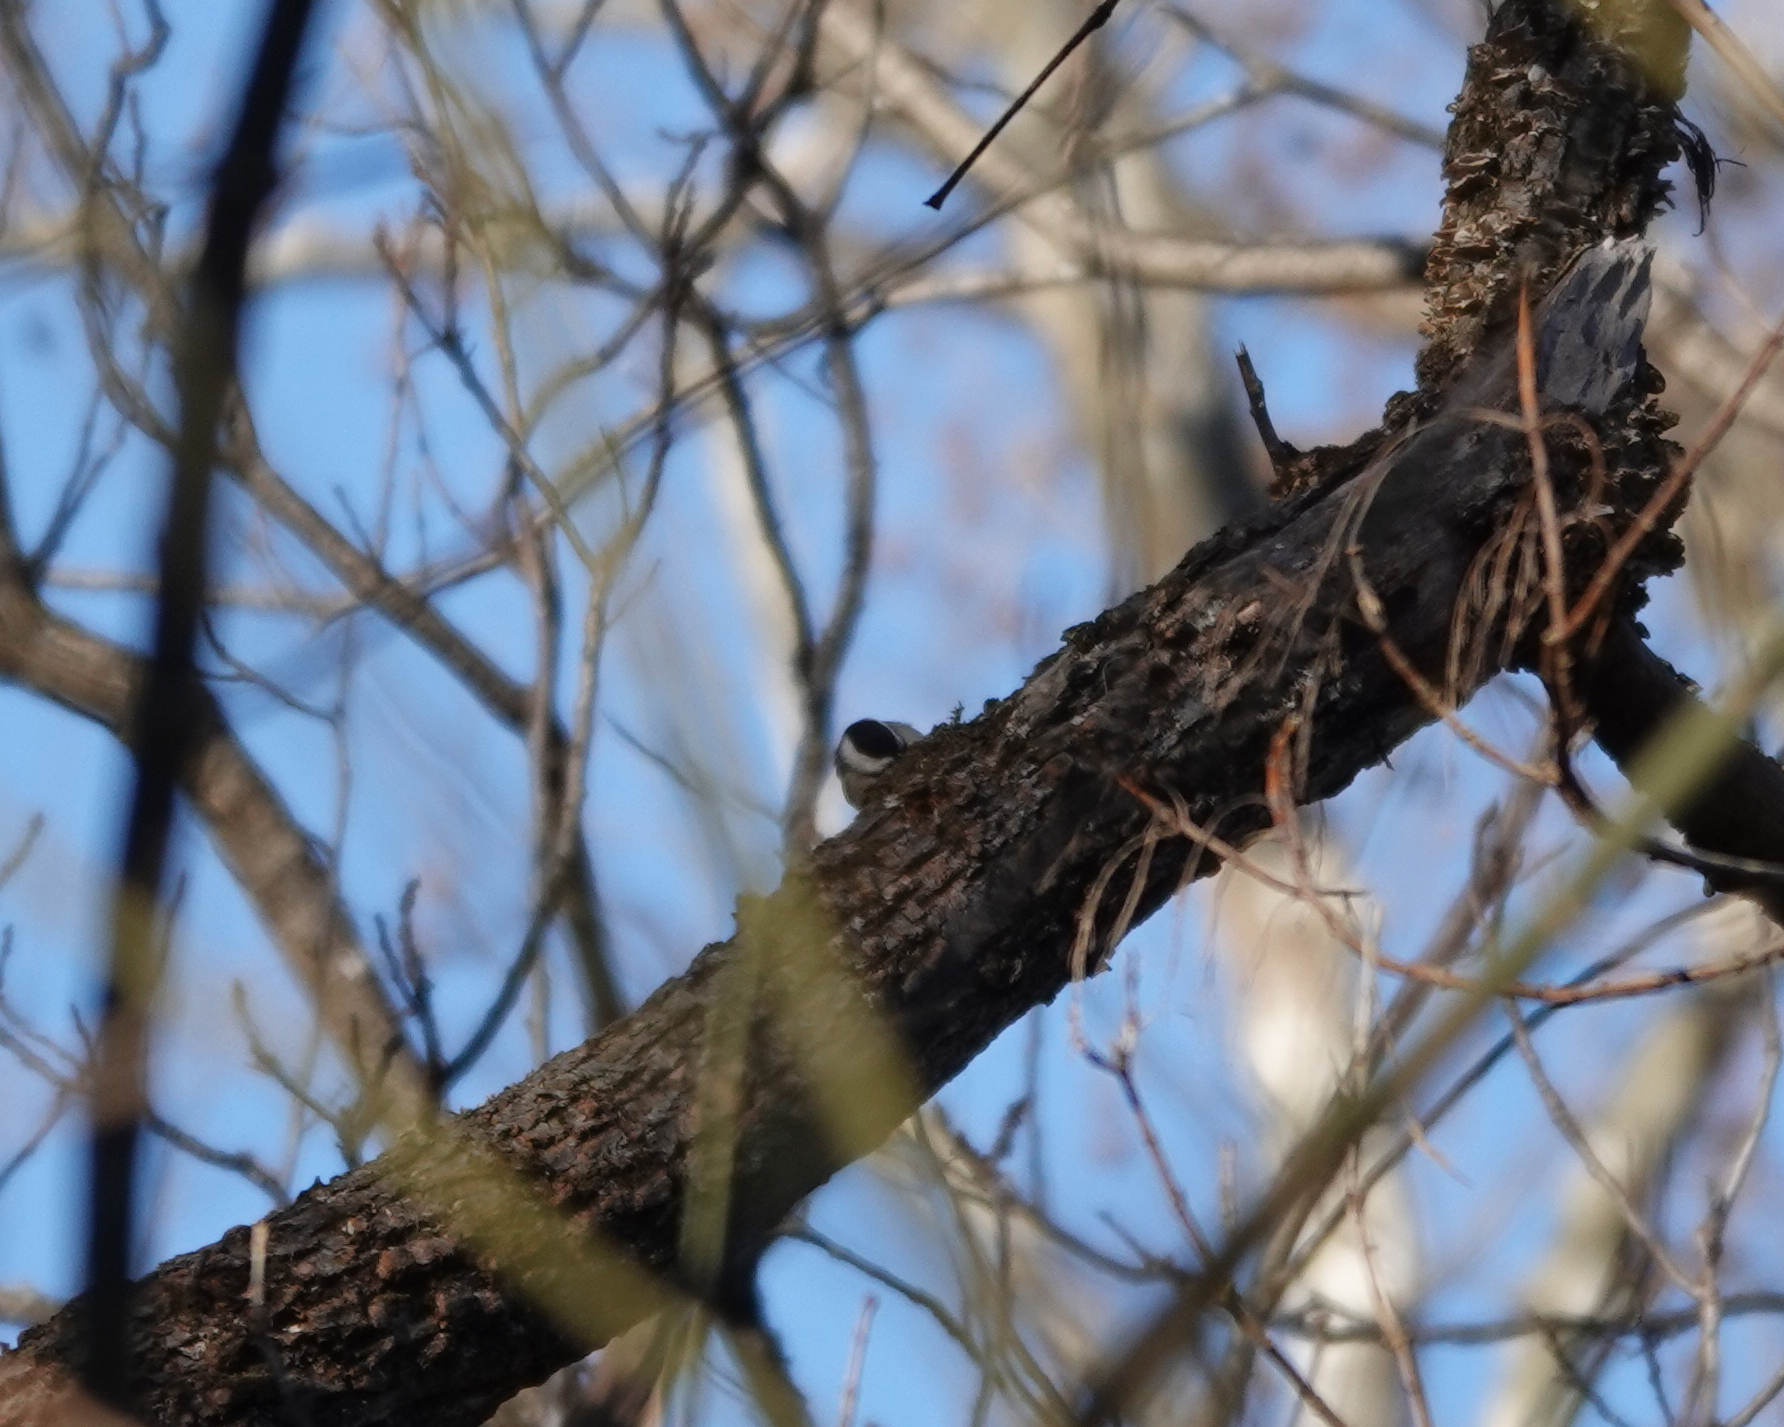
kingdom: Animalia
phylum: Chordata
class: Aves
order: Passeriformes
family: Paridae
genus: Poecile
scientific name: Poecile carolinensis
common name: Carolina chickadee
